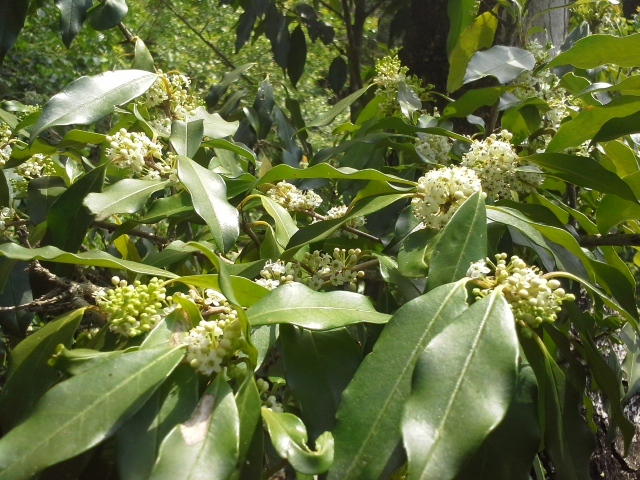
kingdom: Plantae
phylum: Tracheophyta
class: Magnoliopsida
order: Aquifoliales
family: Aquifoliaceae
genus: Ilex
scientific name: Ilex mitis
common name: African holly
